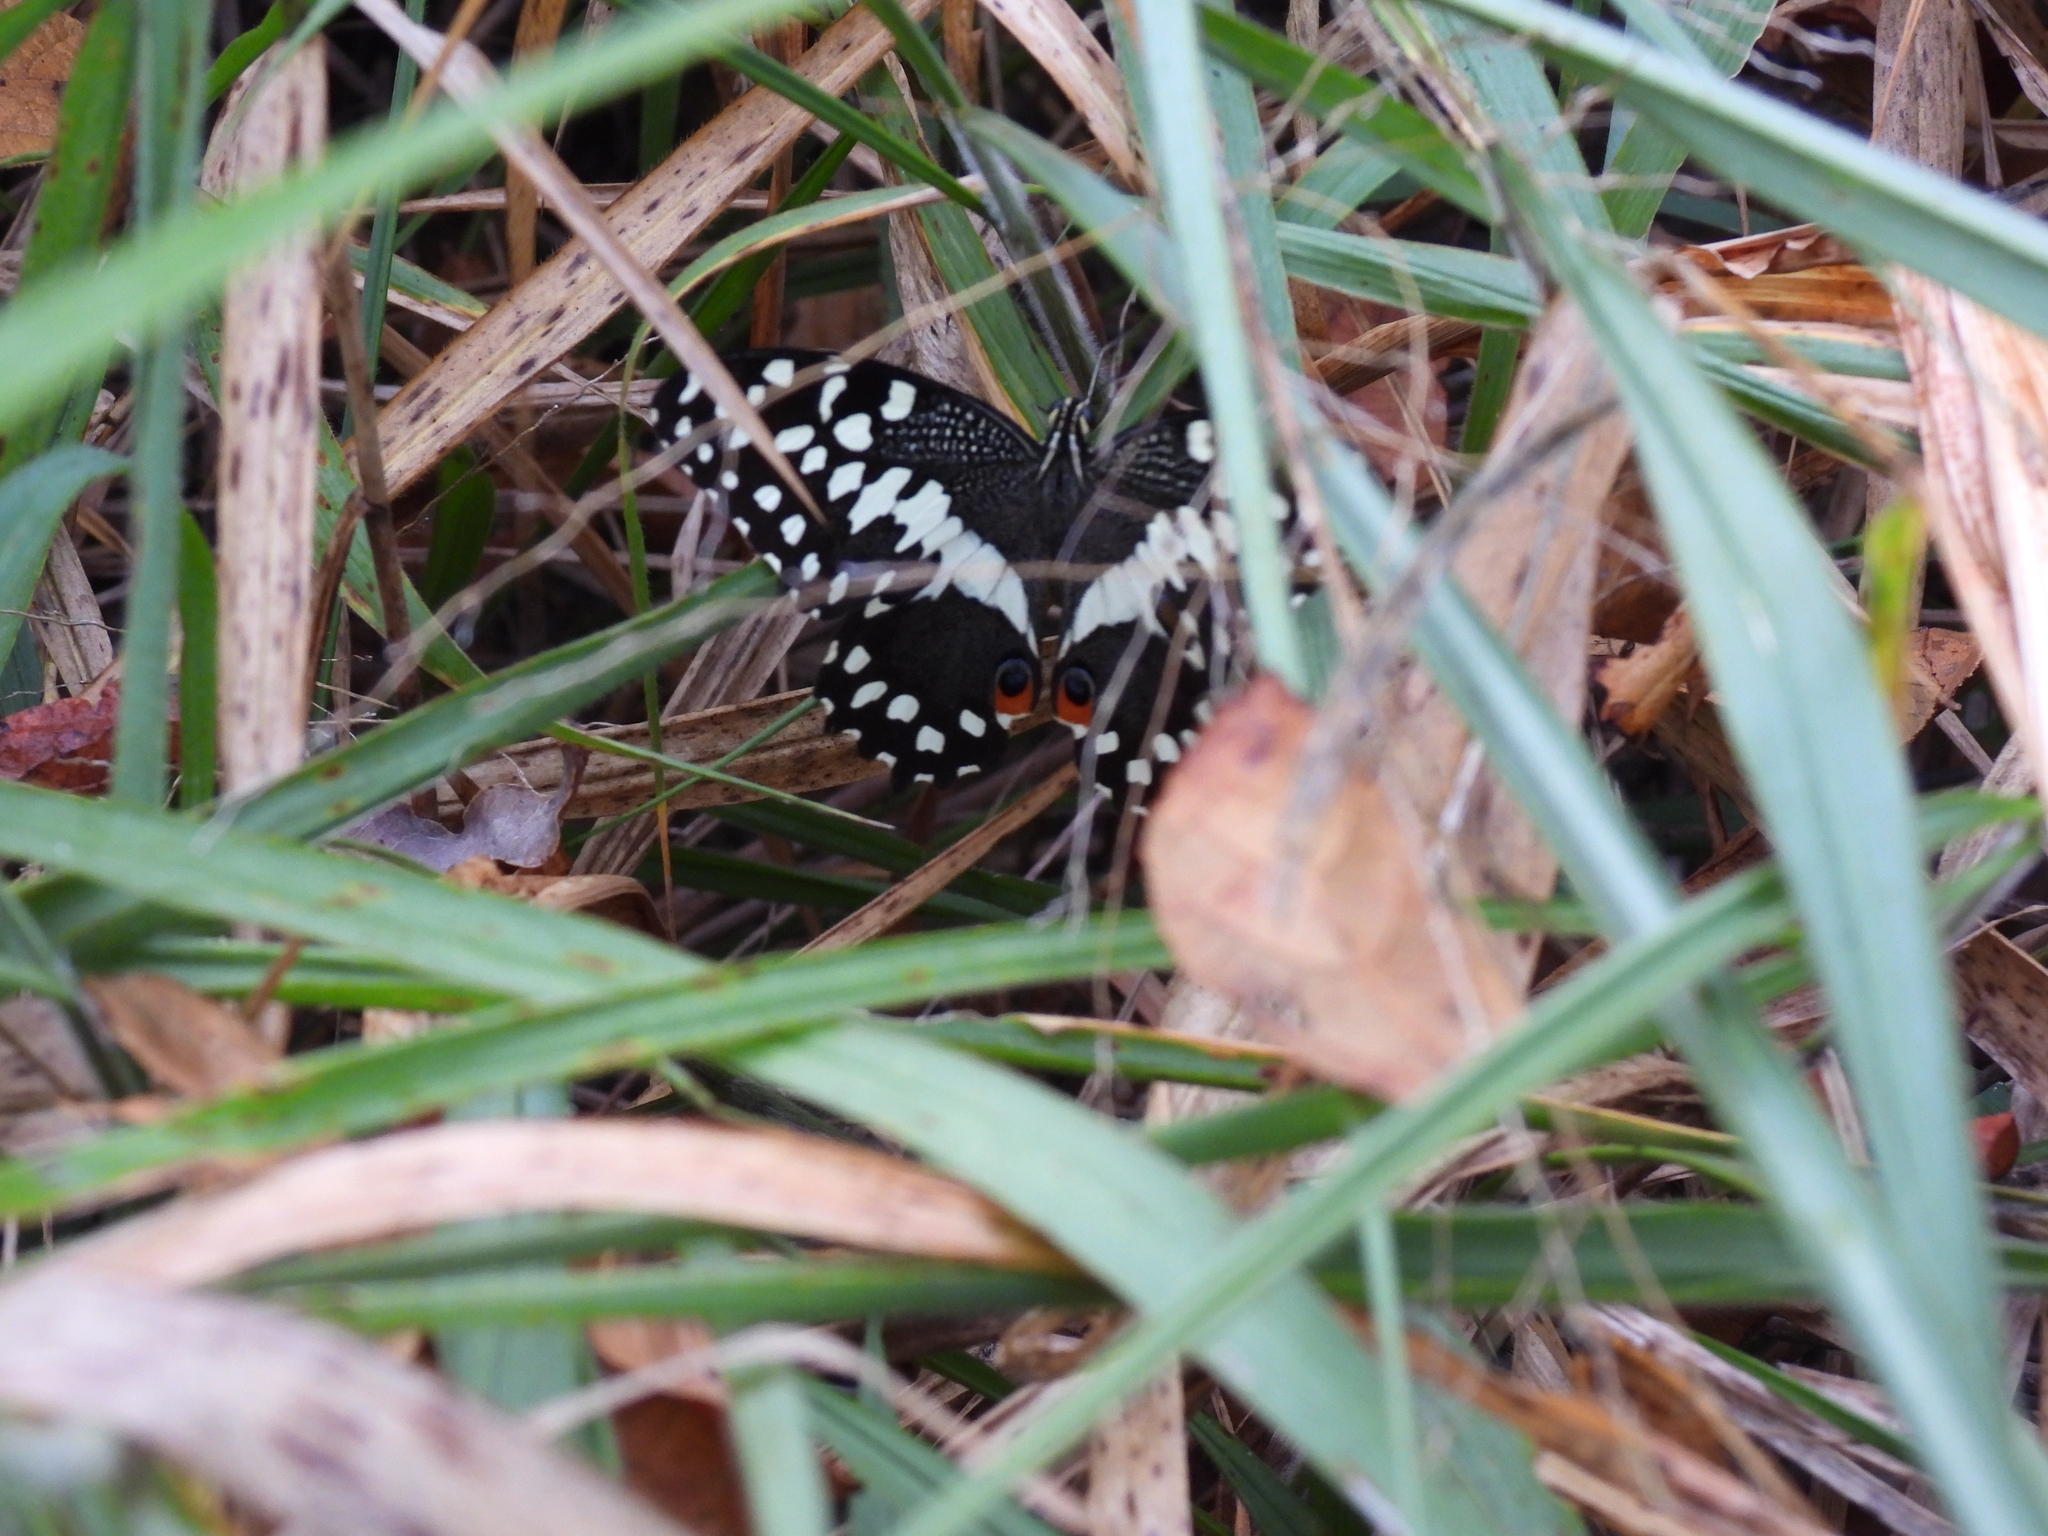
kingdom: Animalia
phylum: Arthropoda
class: Insecta
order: Lepidoptera
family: Papilionidae
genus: Papilio
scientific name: Papilio demodocus
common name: Christmas butterfly
